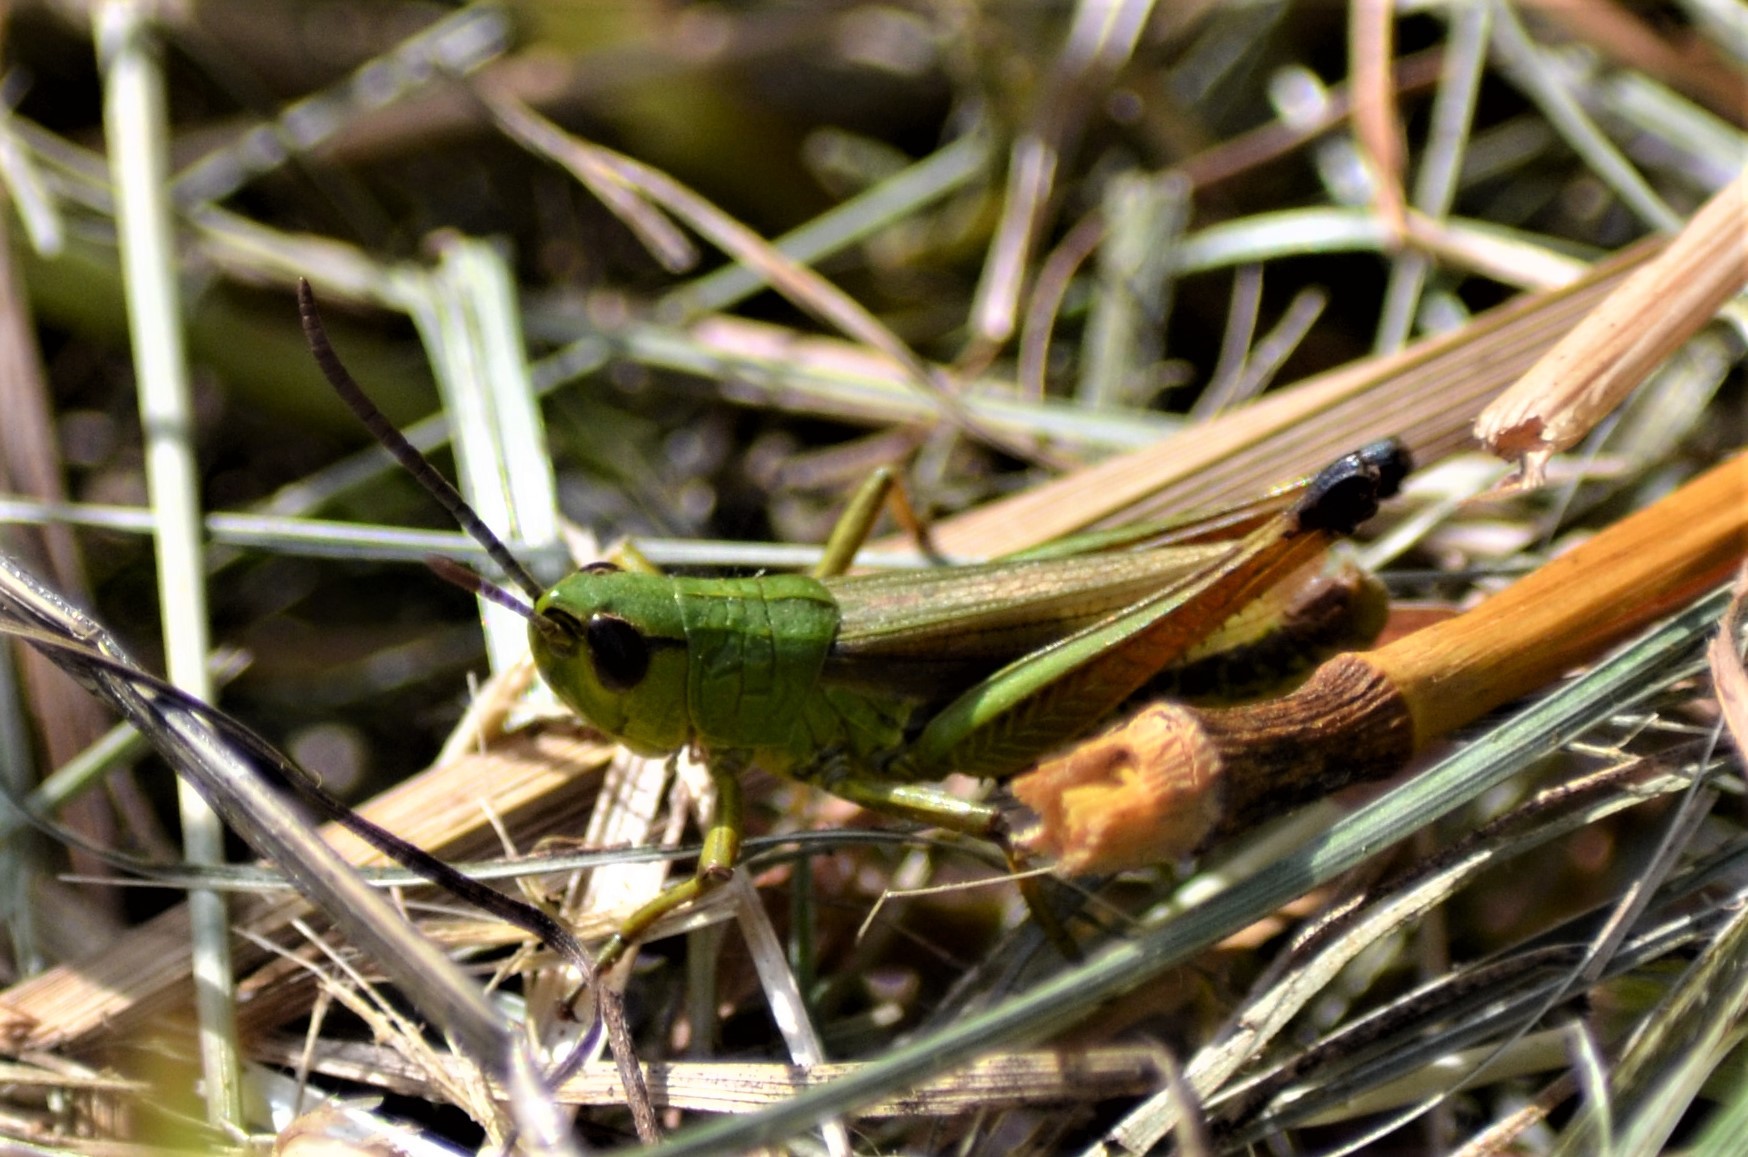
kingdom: Animalia
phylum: Arthropoda
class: Insecta
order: Orthoptera
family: Acrididae
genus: Pseudochorthippus
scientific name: Pseudochorthippus parallelus
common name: Meadow grasshopper
